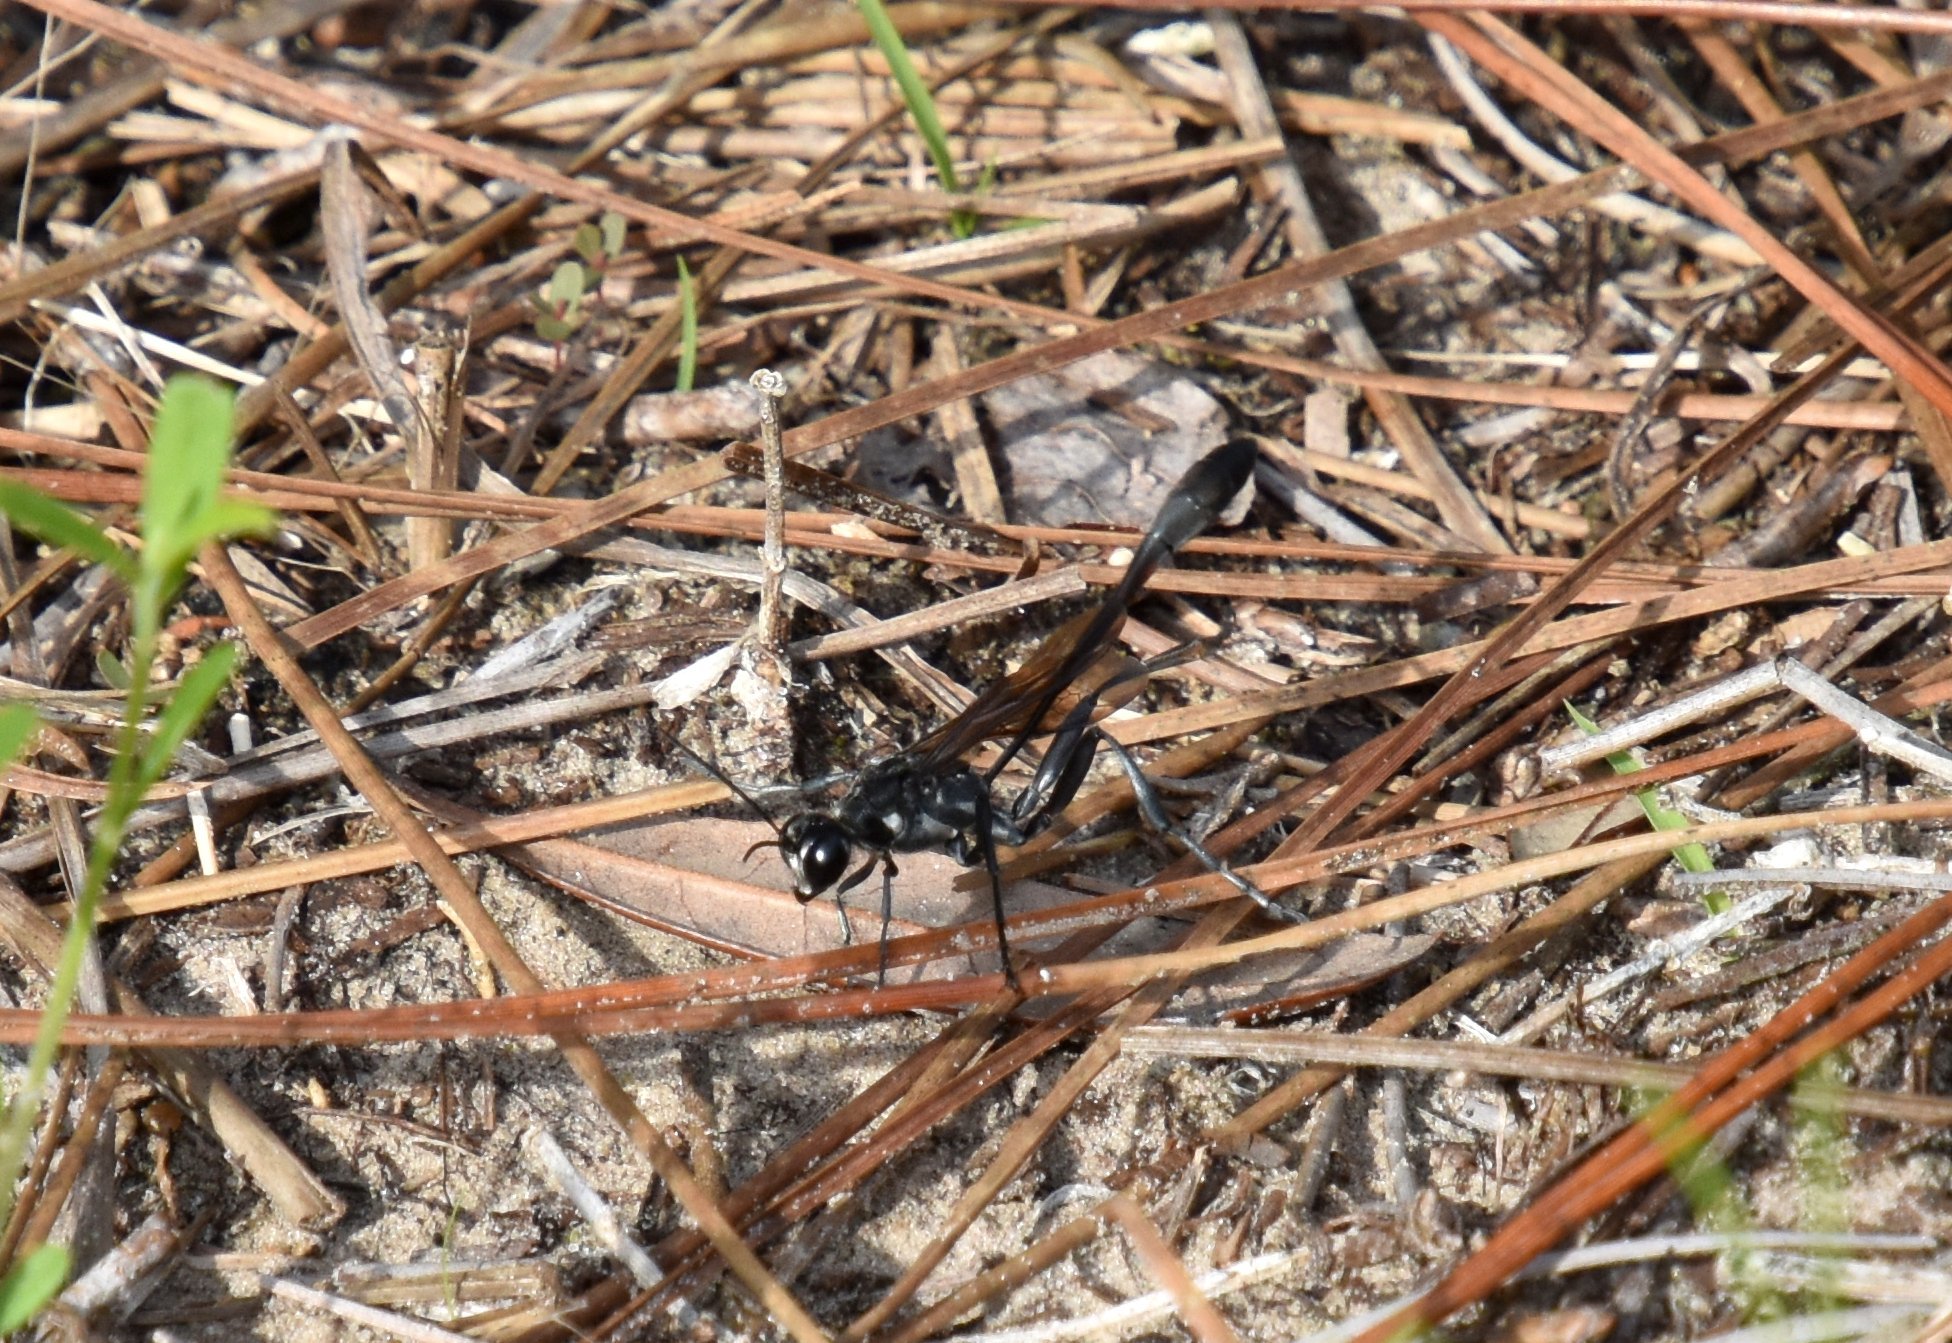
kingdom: Animalia
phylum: Arthropoda
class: Insecta
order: Hymenoptera
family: Sphecidae
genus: Ammophila
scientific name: Ammophila
